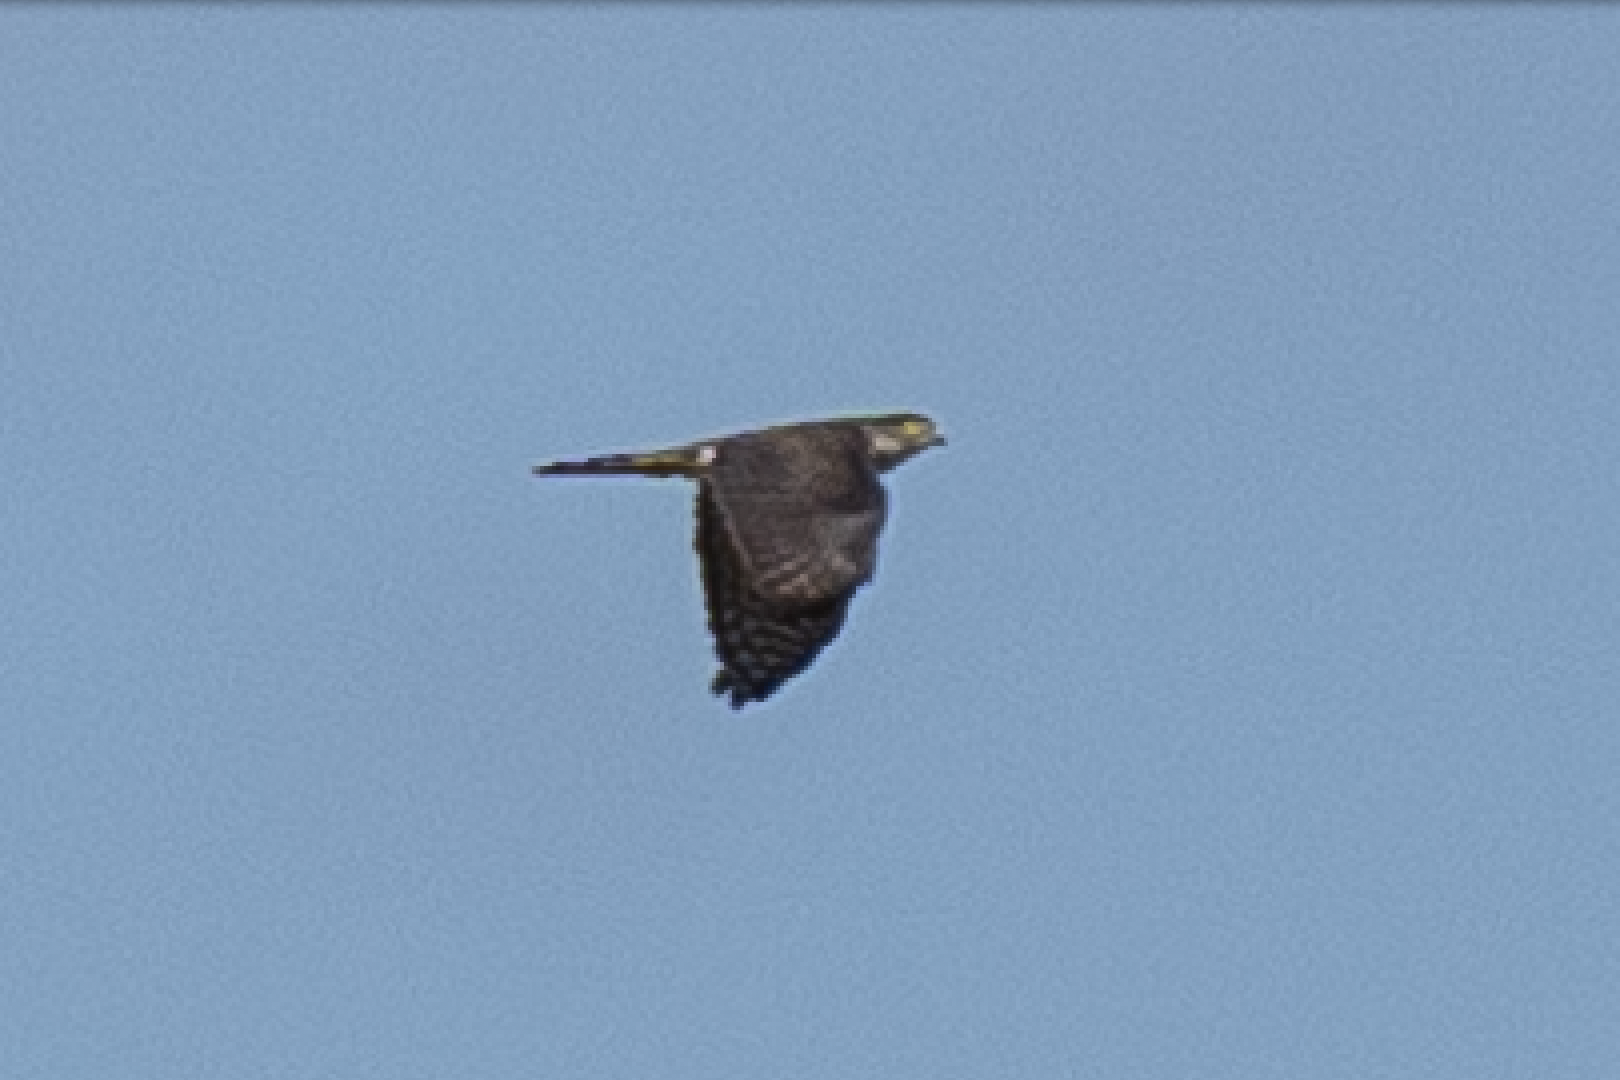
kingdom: Animalia
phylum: Chordata
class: Aves
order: Accipitriformes
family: Accipitridae
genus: Accipiter
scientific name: Accipiter gularis
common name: Japanese sparrowhawk
